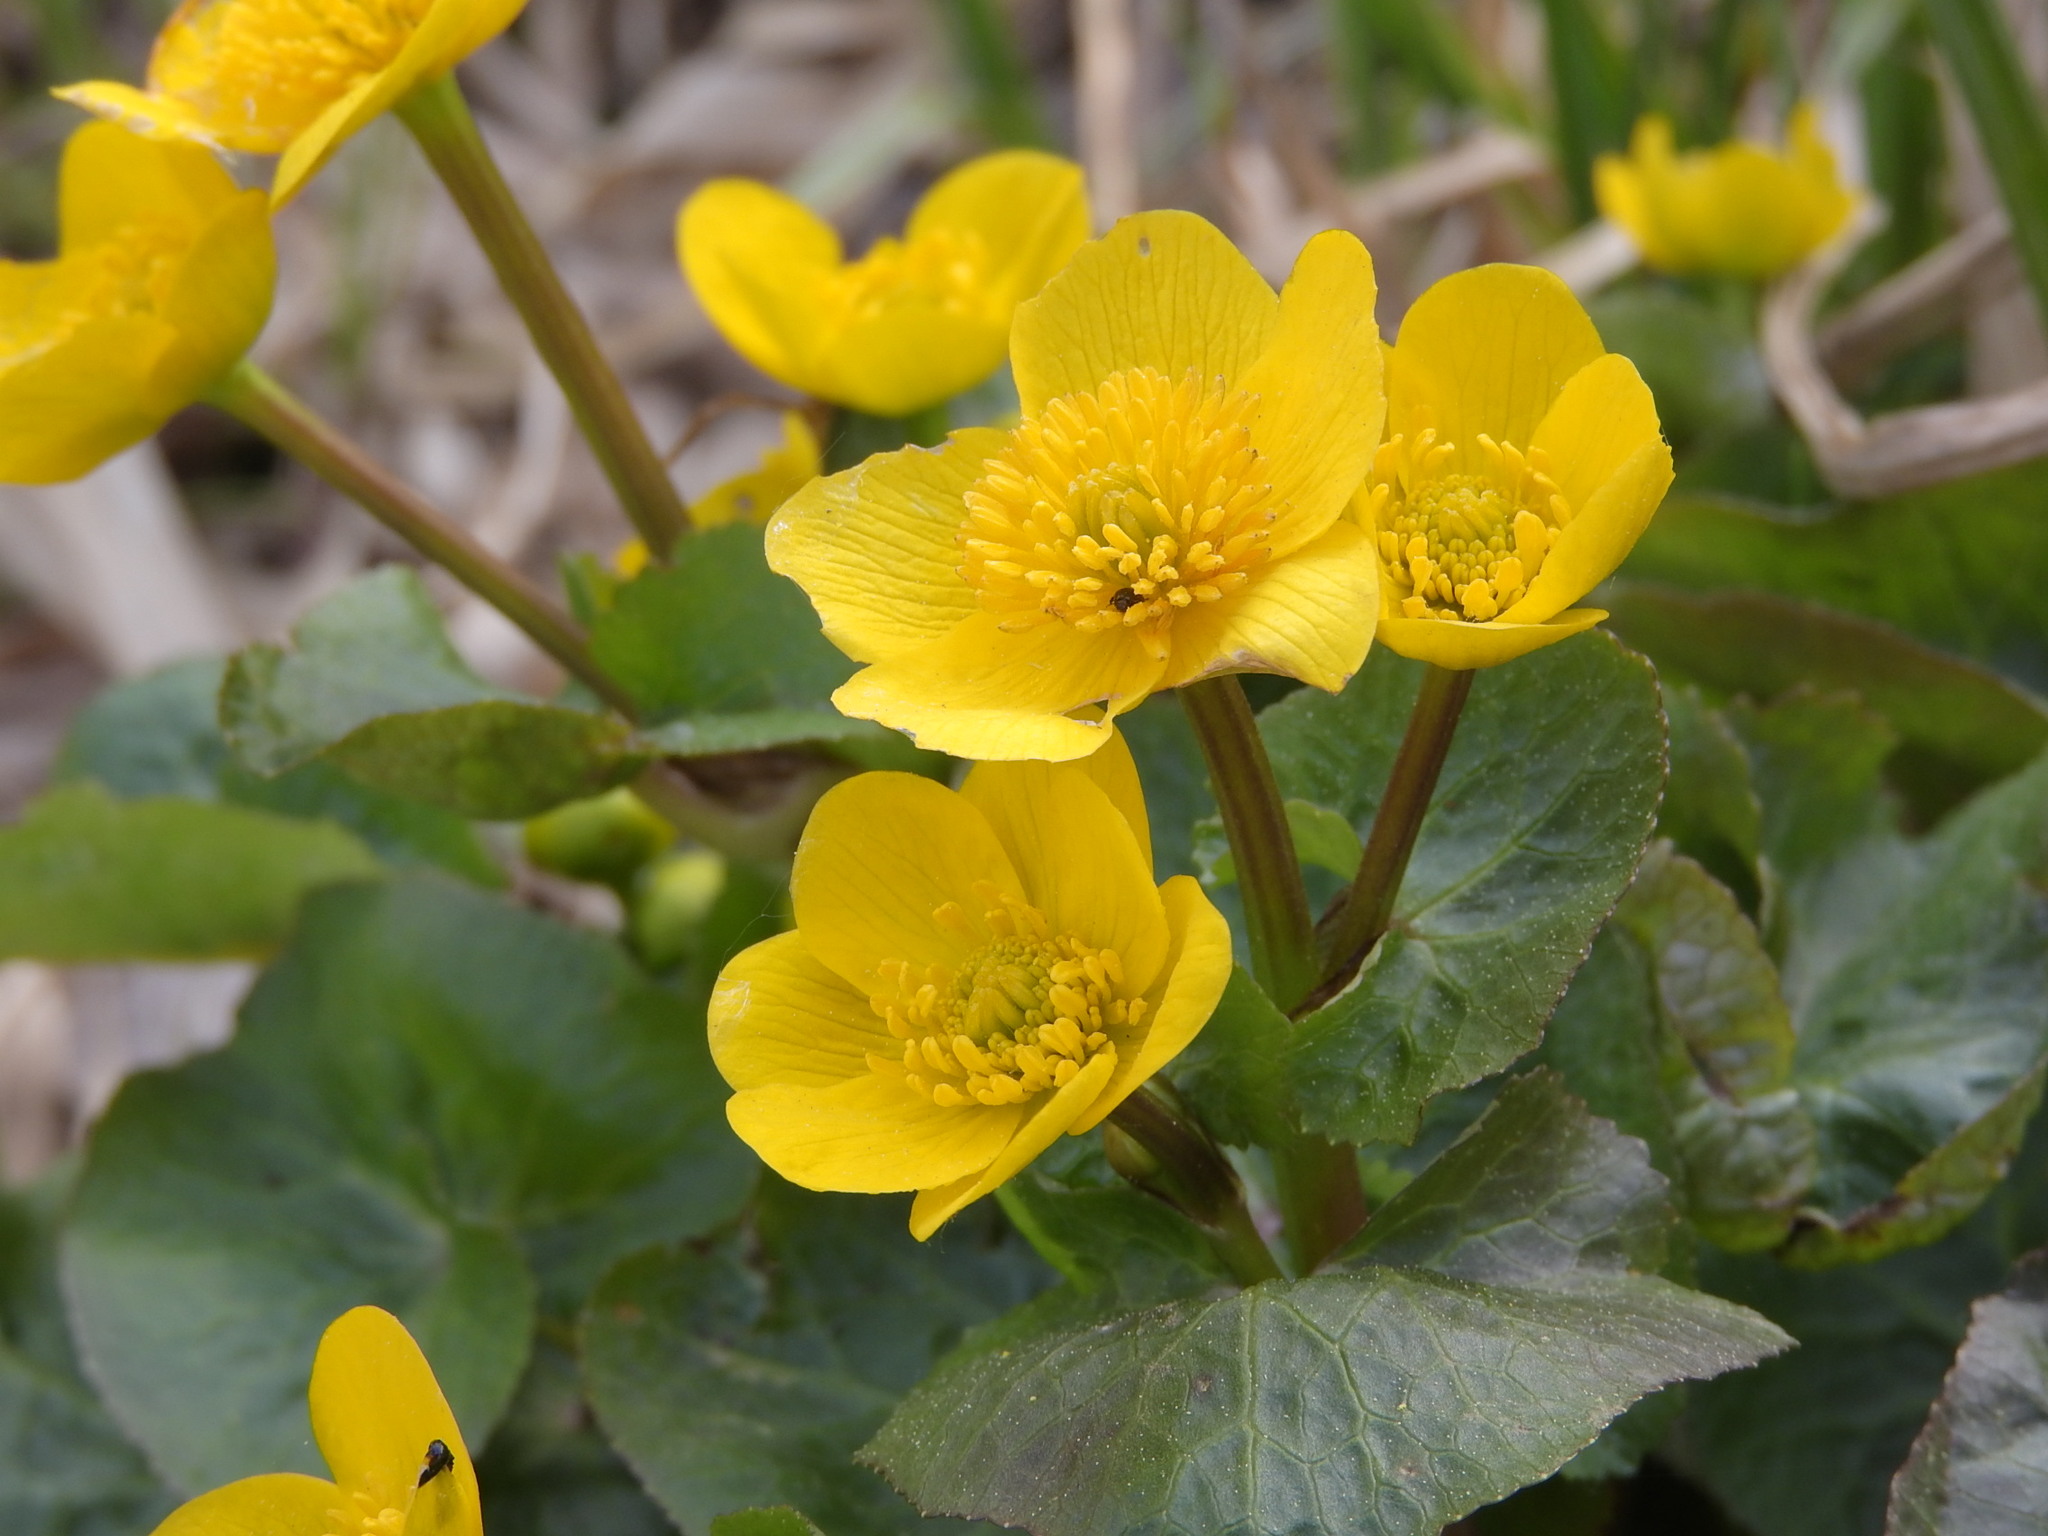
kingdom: Plantae
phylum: Tracheophyta
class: Magnoliopsida
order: Ranunculales
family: Ranunculaceae
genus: Caltha
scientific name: Caltha palustris
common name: Marsh marigold
